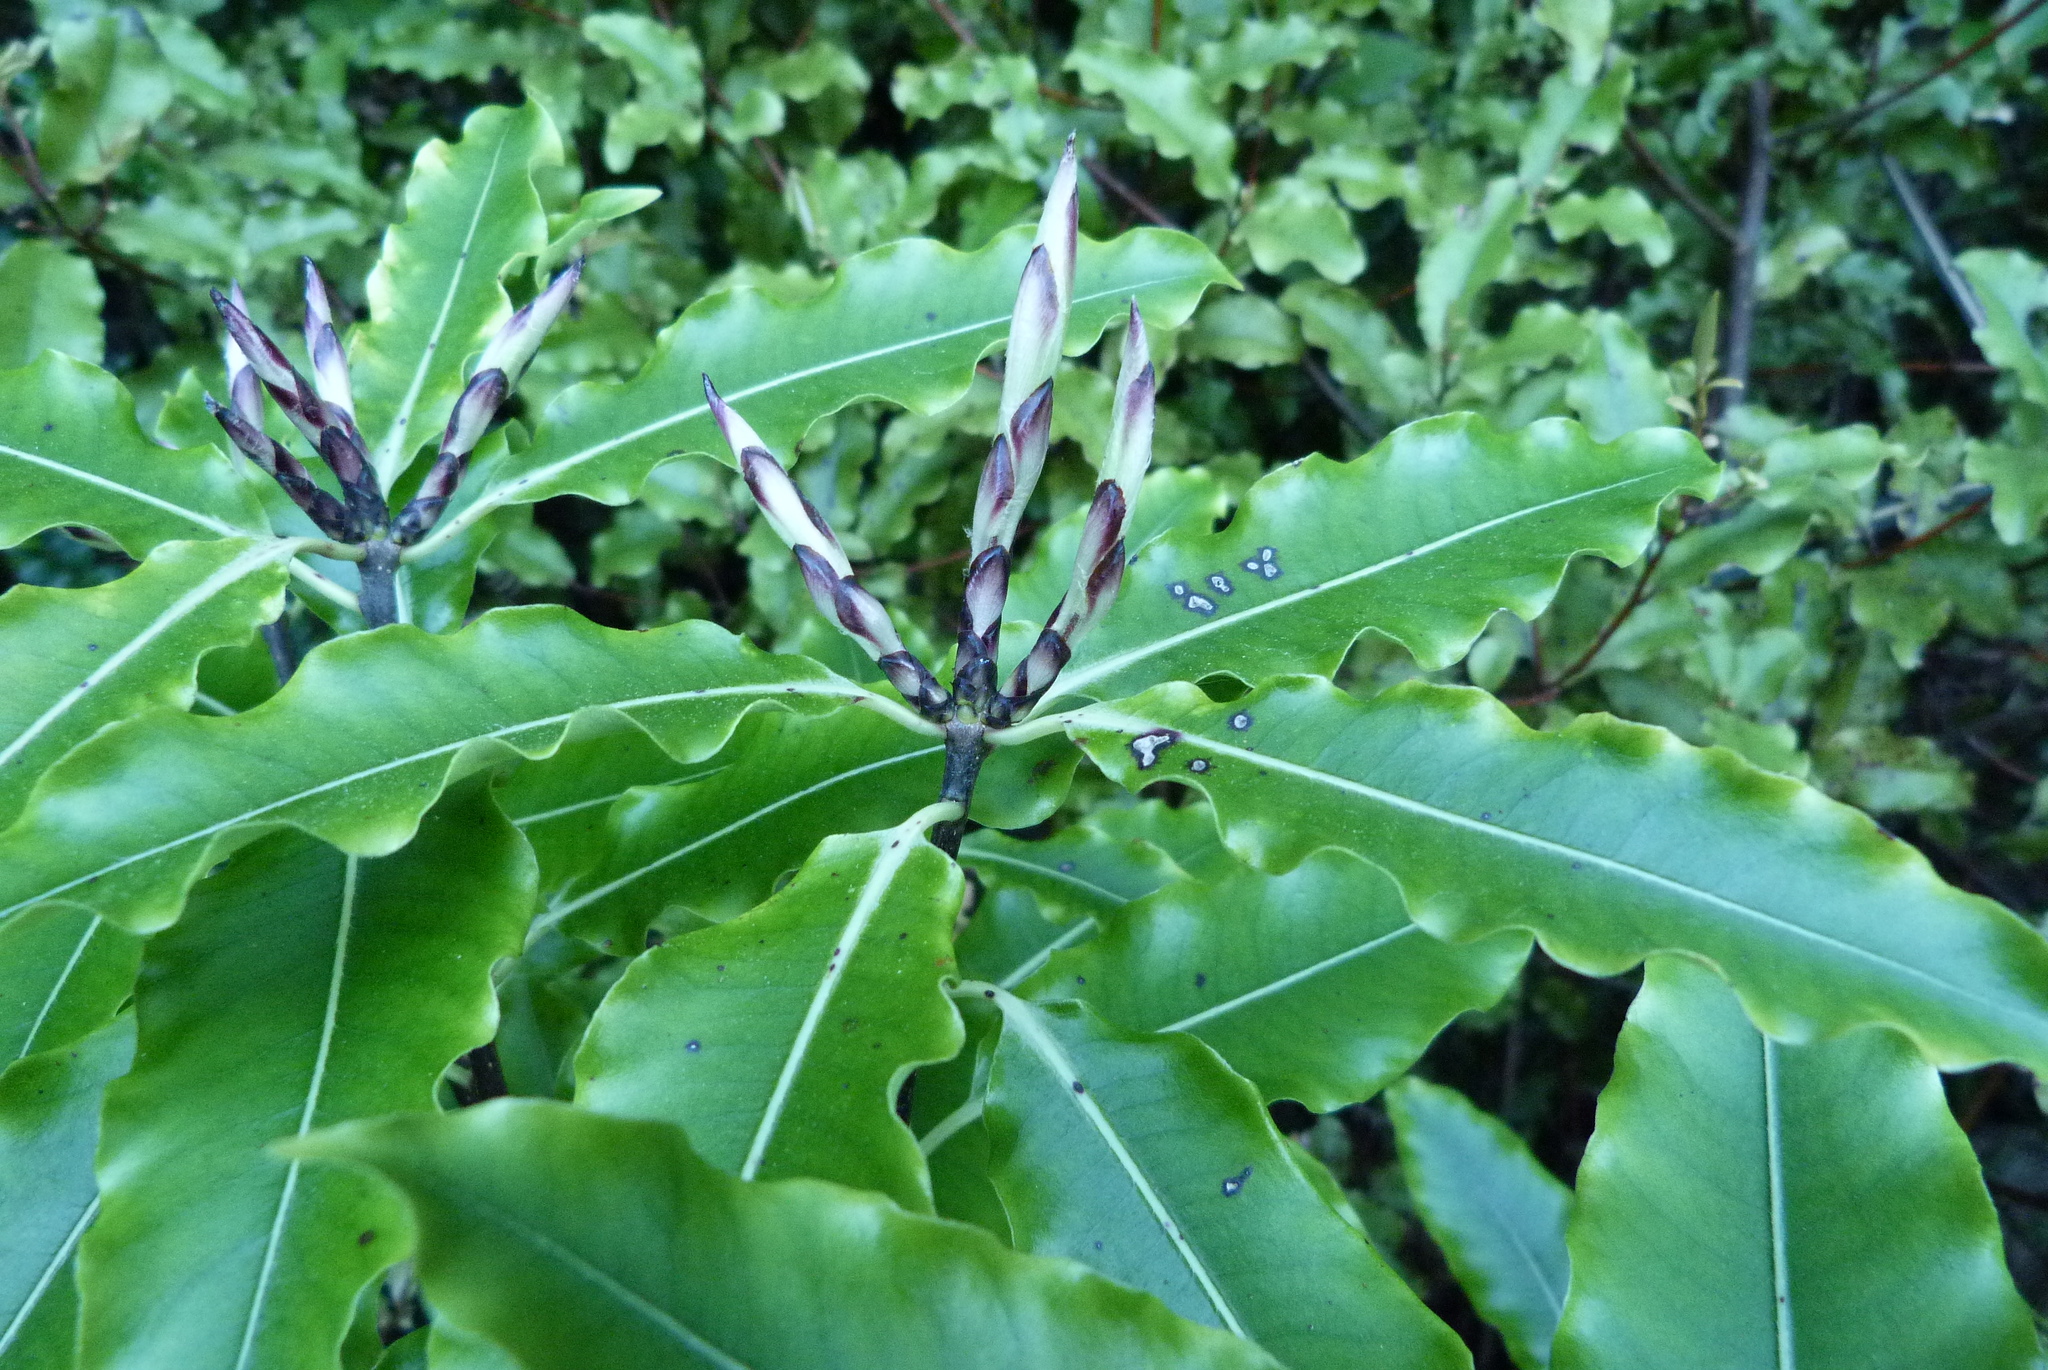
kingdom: Plantae
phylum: Tracheophyta
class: Magnoliopsida
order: Apiales
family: Pittosporaceae
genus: Pittosporum
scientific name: Pittosporum eugenioides
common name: Lemonwood
